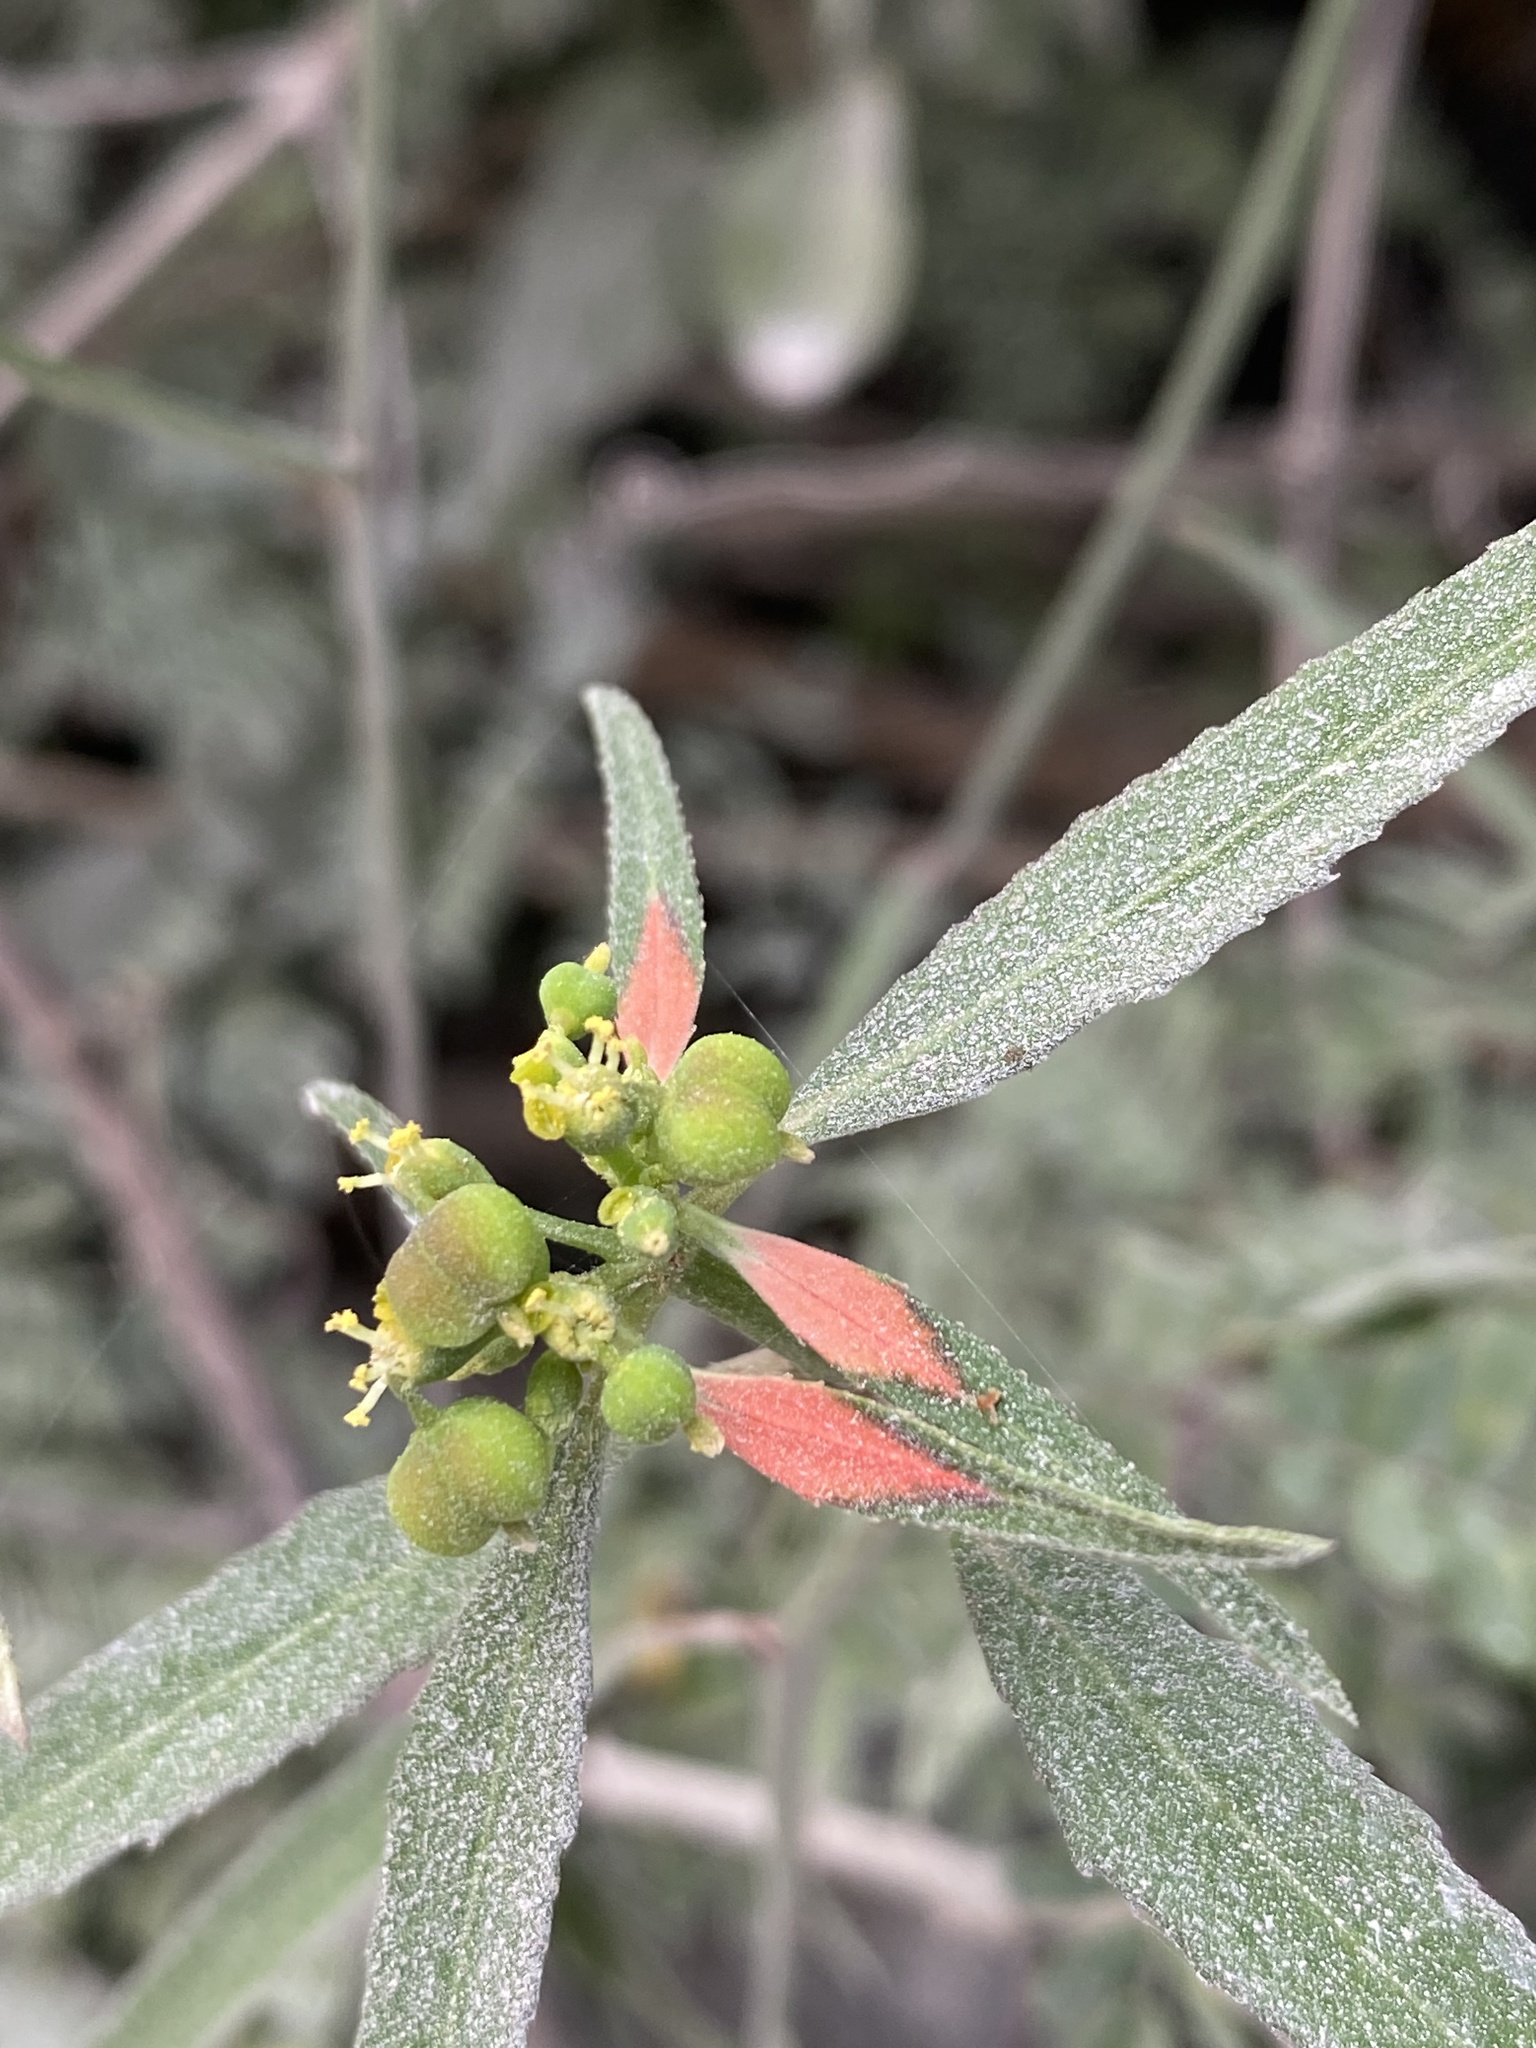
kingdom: Plantae
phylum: Tracheophyta
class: Magnoliopsida
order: Malpighiales
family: Euphorbiaceae
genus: Euphorbia
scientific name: Euphorbia heterophylla
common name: Mexican fireplant
